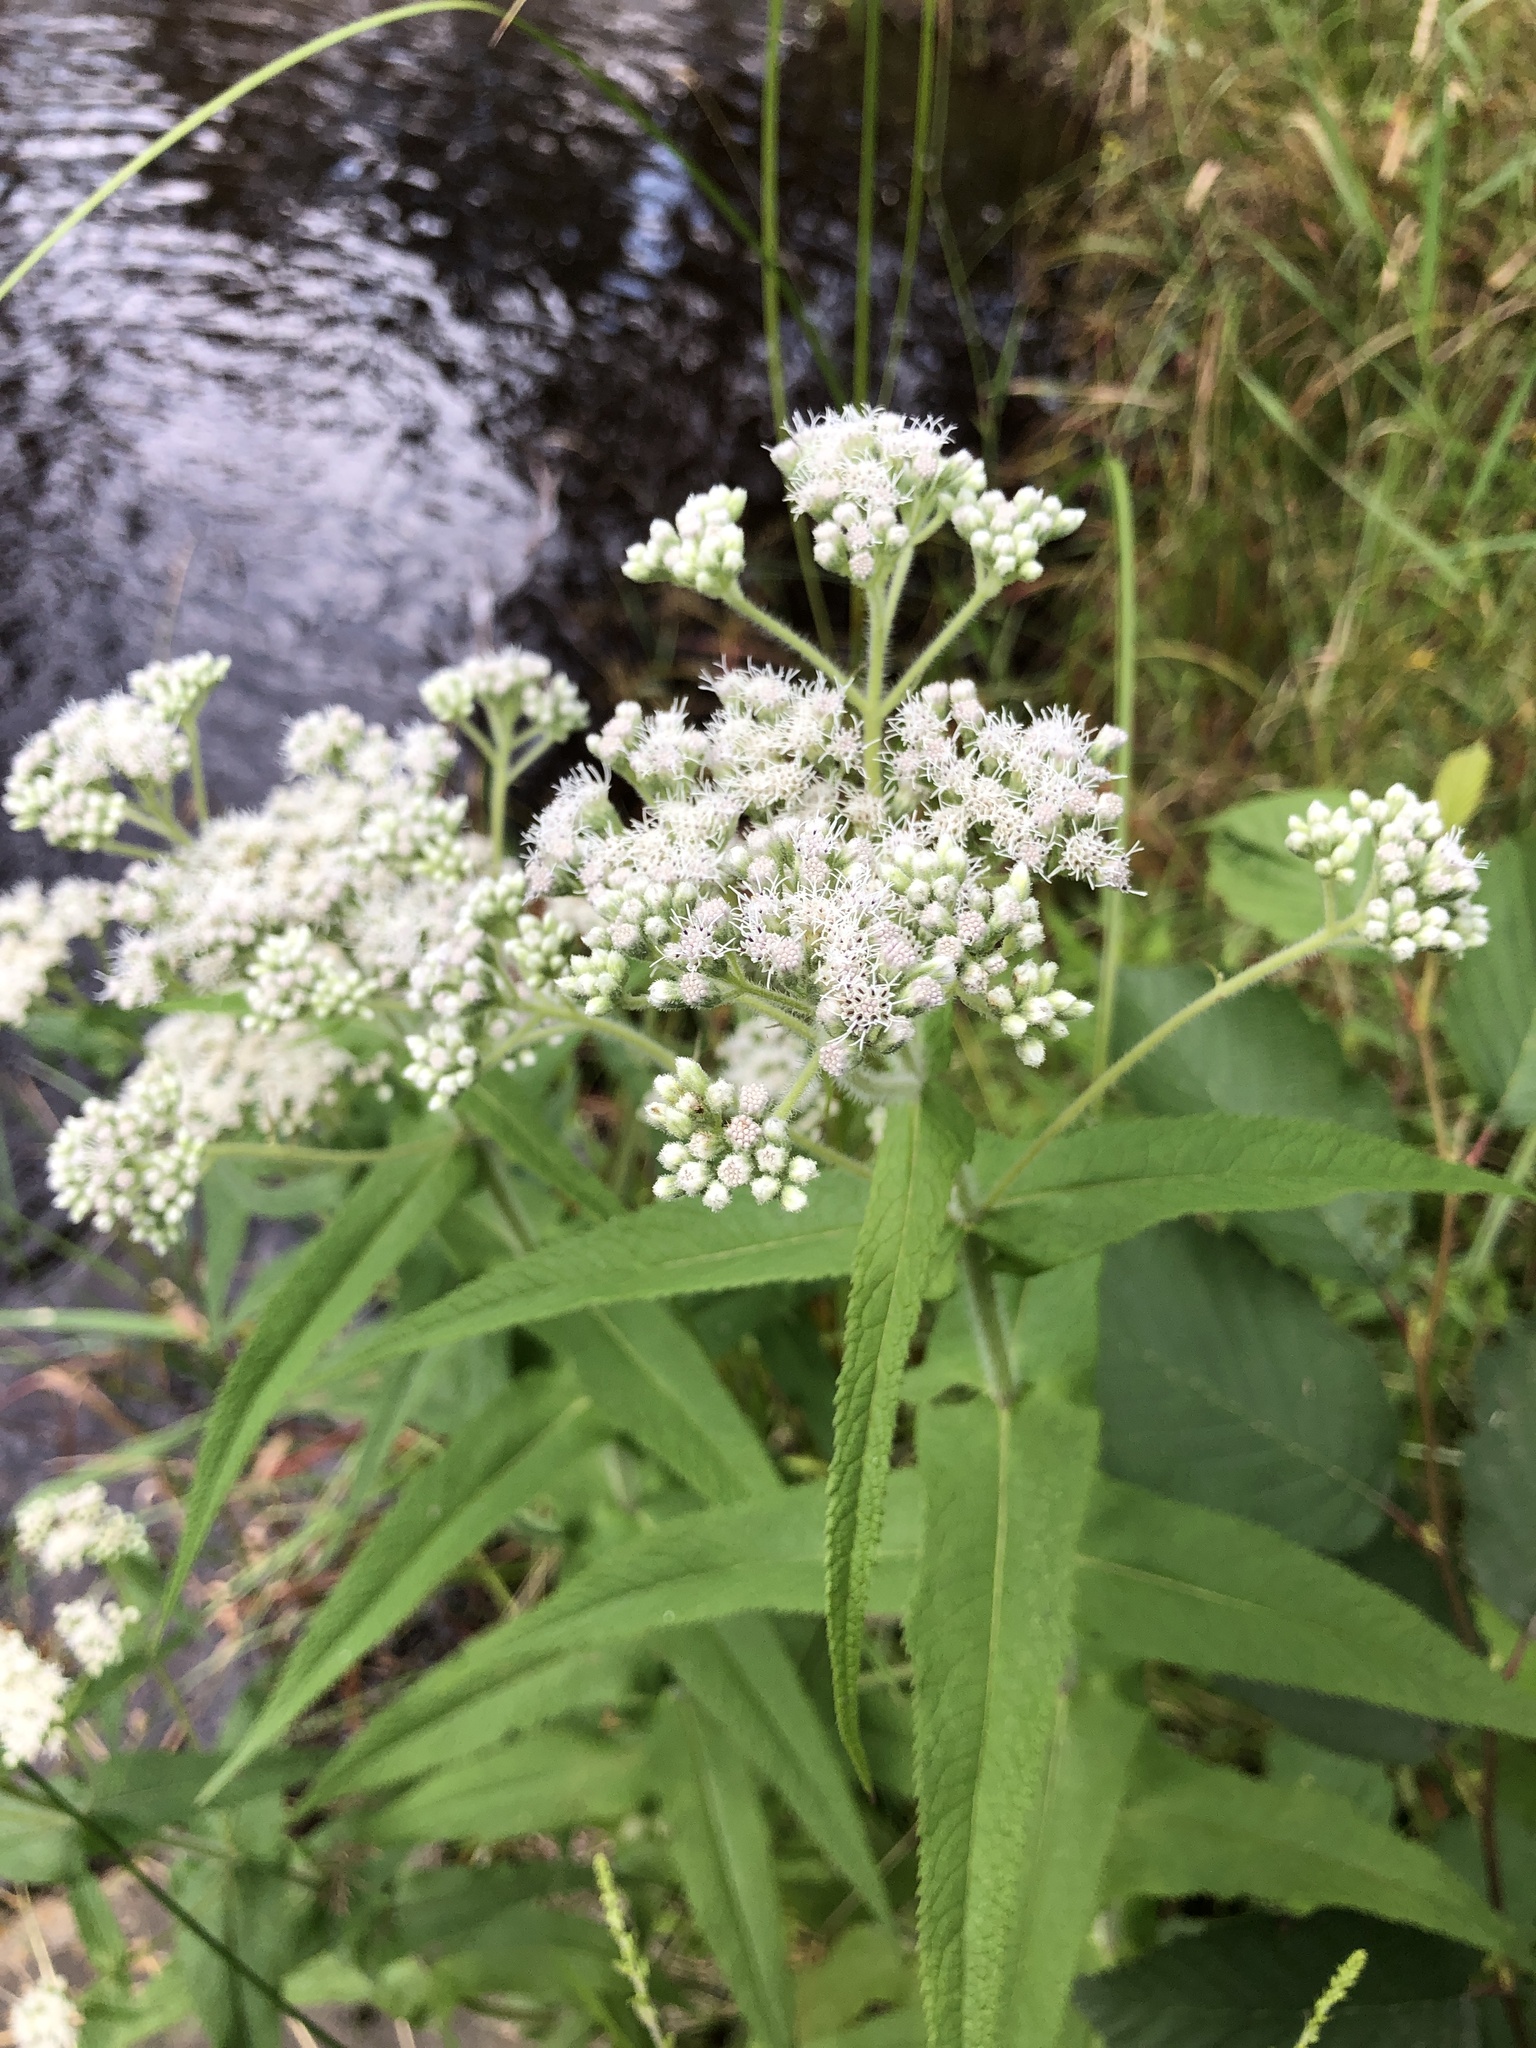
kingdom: Plantae
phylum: Tracheophyta
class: Magnoliopsida
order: Asterales
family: Asteraceae
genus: Eupatorium
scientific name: Eupatorium perfoliatum
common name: Boneset
